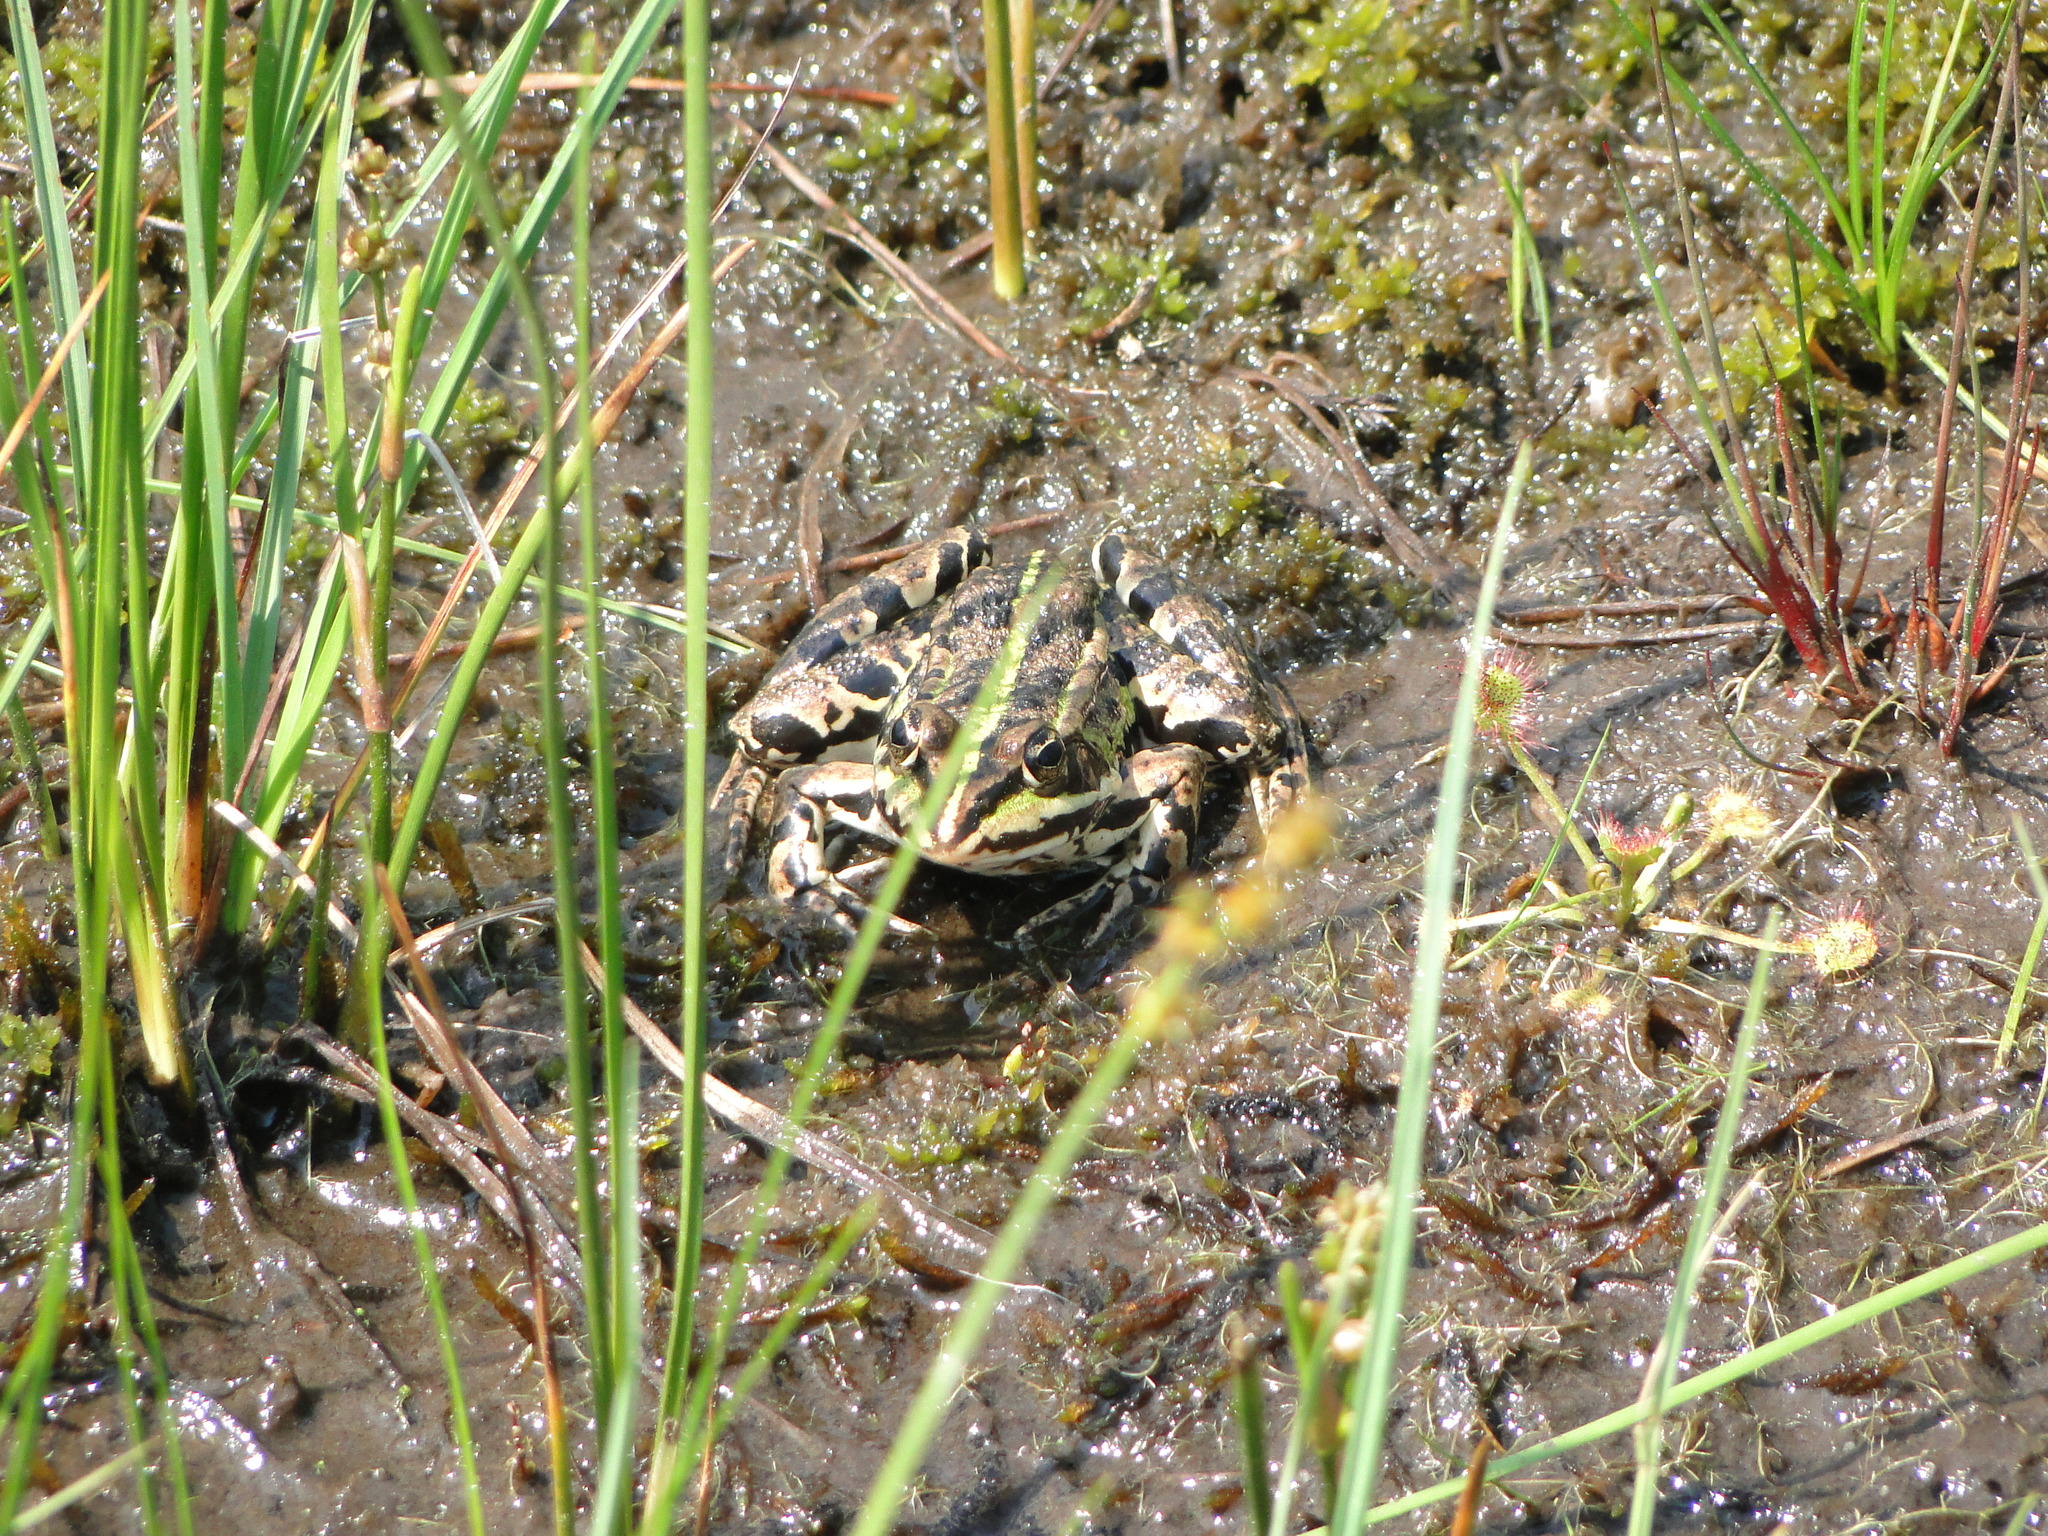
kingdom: Animalia
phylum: Chordata
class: Amphibia
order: Anura
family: Ranidae
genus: Pelophylax
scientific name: Pelophylax
